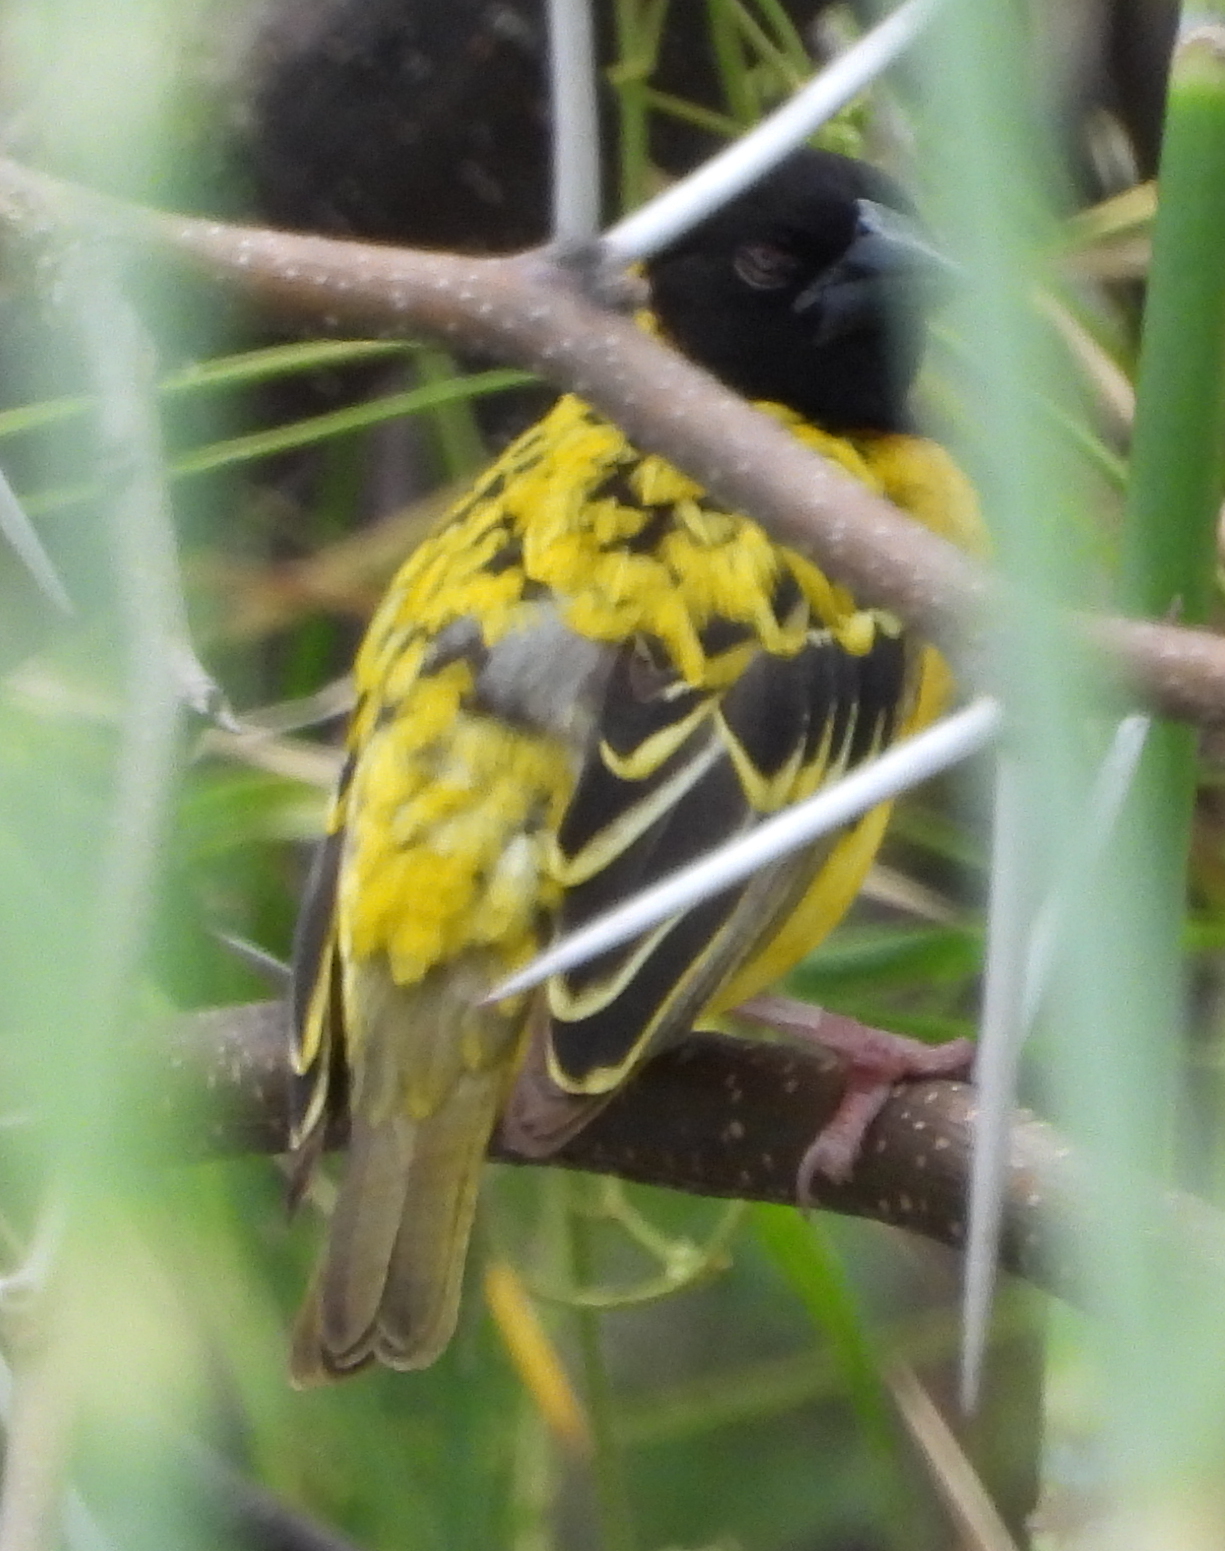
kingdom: Animalia
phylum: Chordata
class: Aves
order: Passeriformes
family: Ploceidae
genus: Ploceus
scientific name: Ploceus cucullatus
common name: Village weaver
